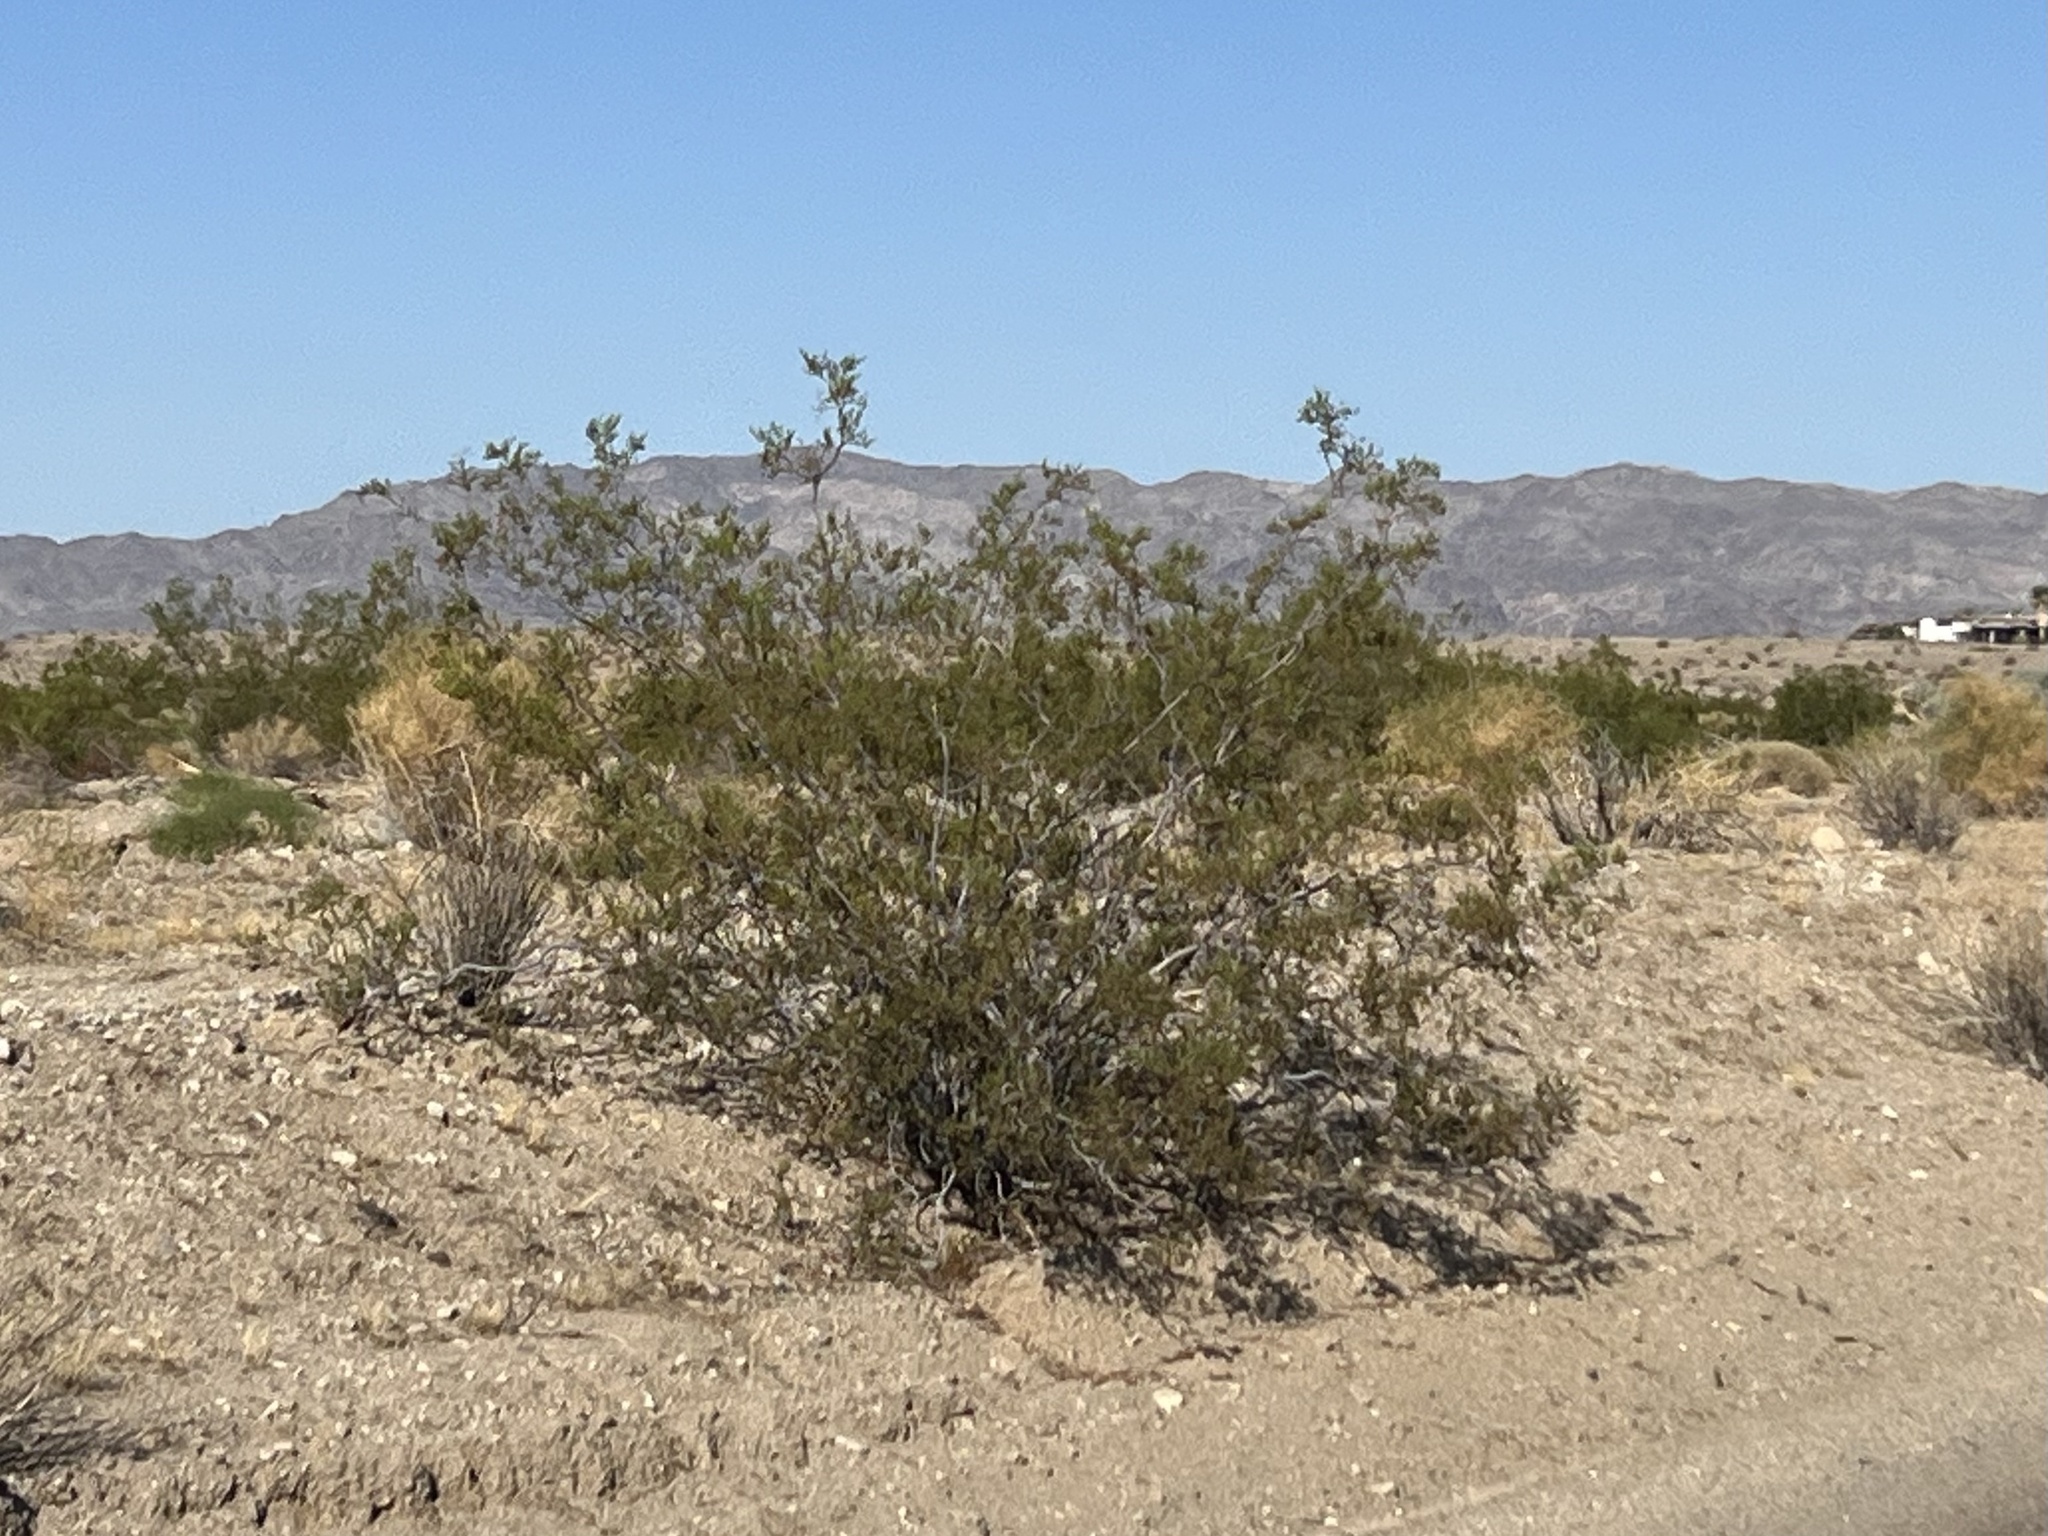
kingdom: Plantae
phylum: Tracheophyta
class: Magnoliopsida
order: Zygophyllales
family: Zygophyllaceae
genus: Larrea
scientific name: Larrea tridentata
